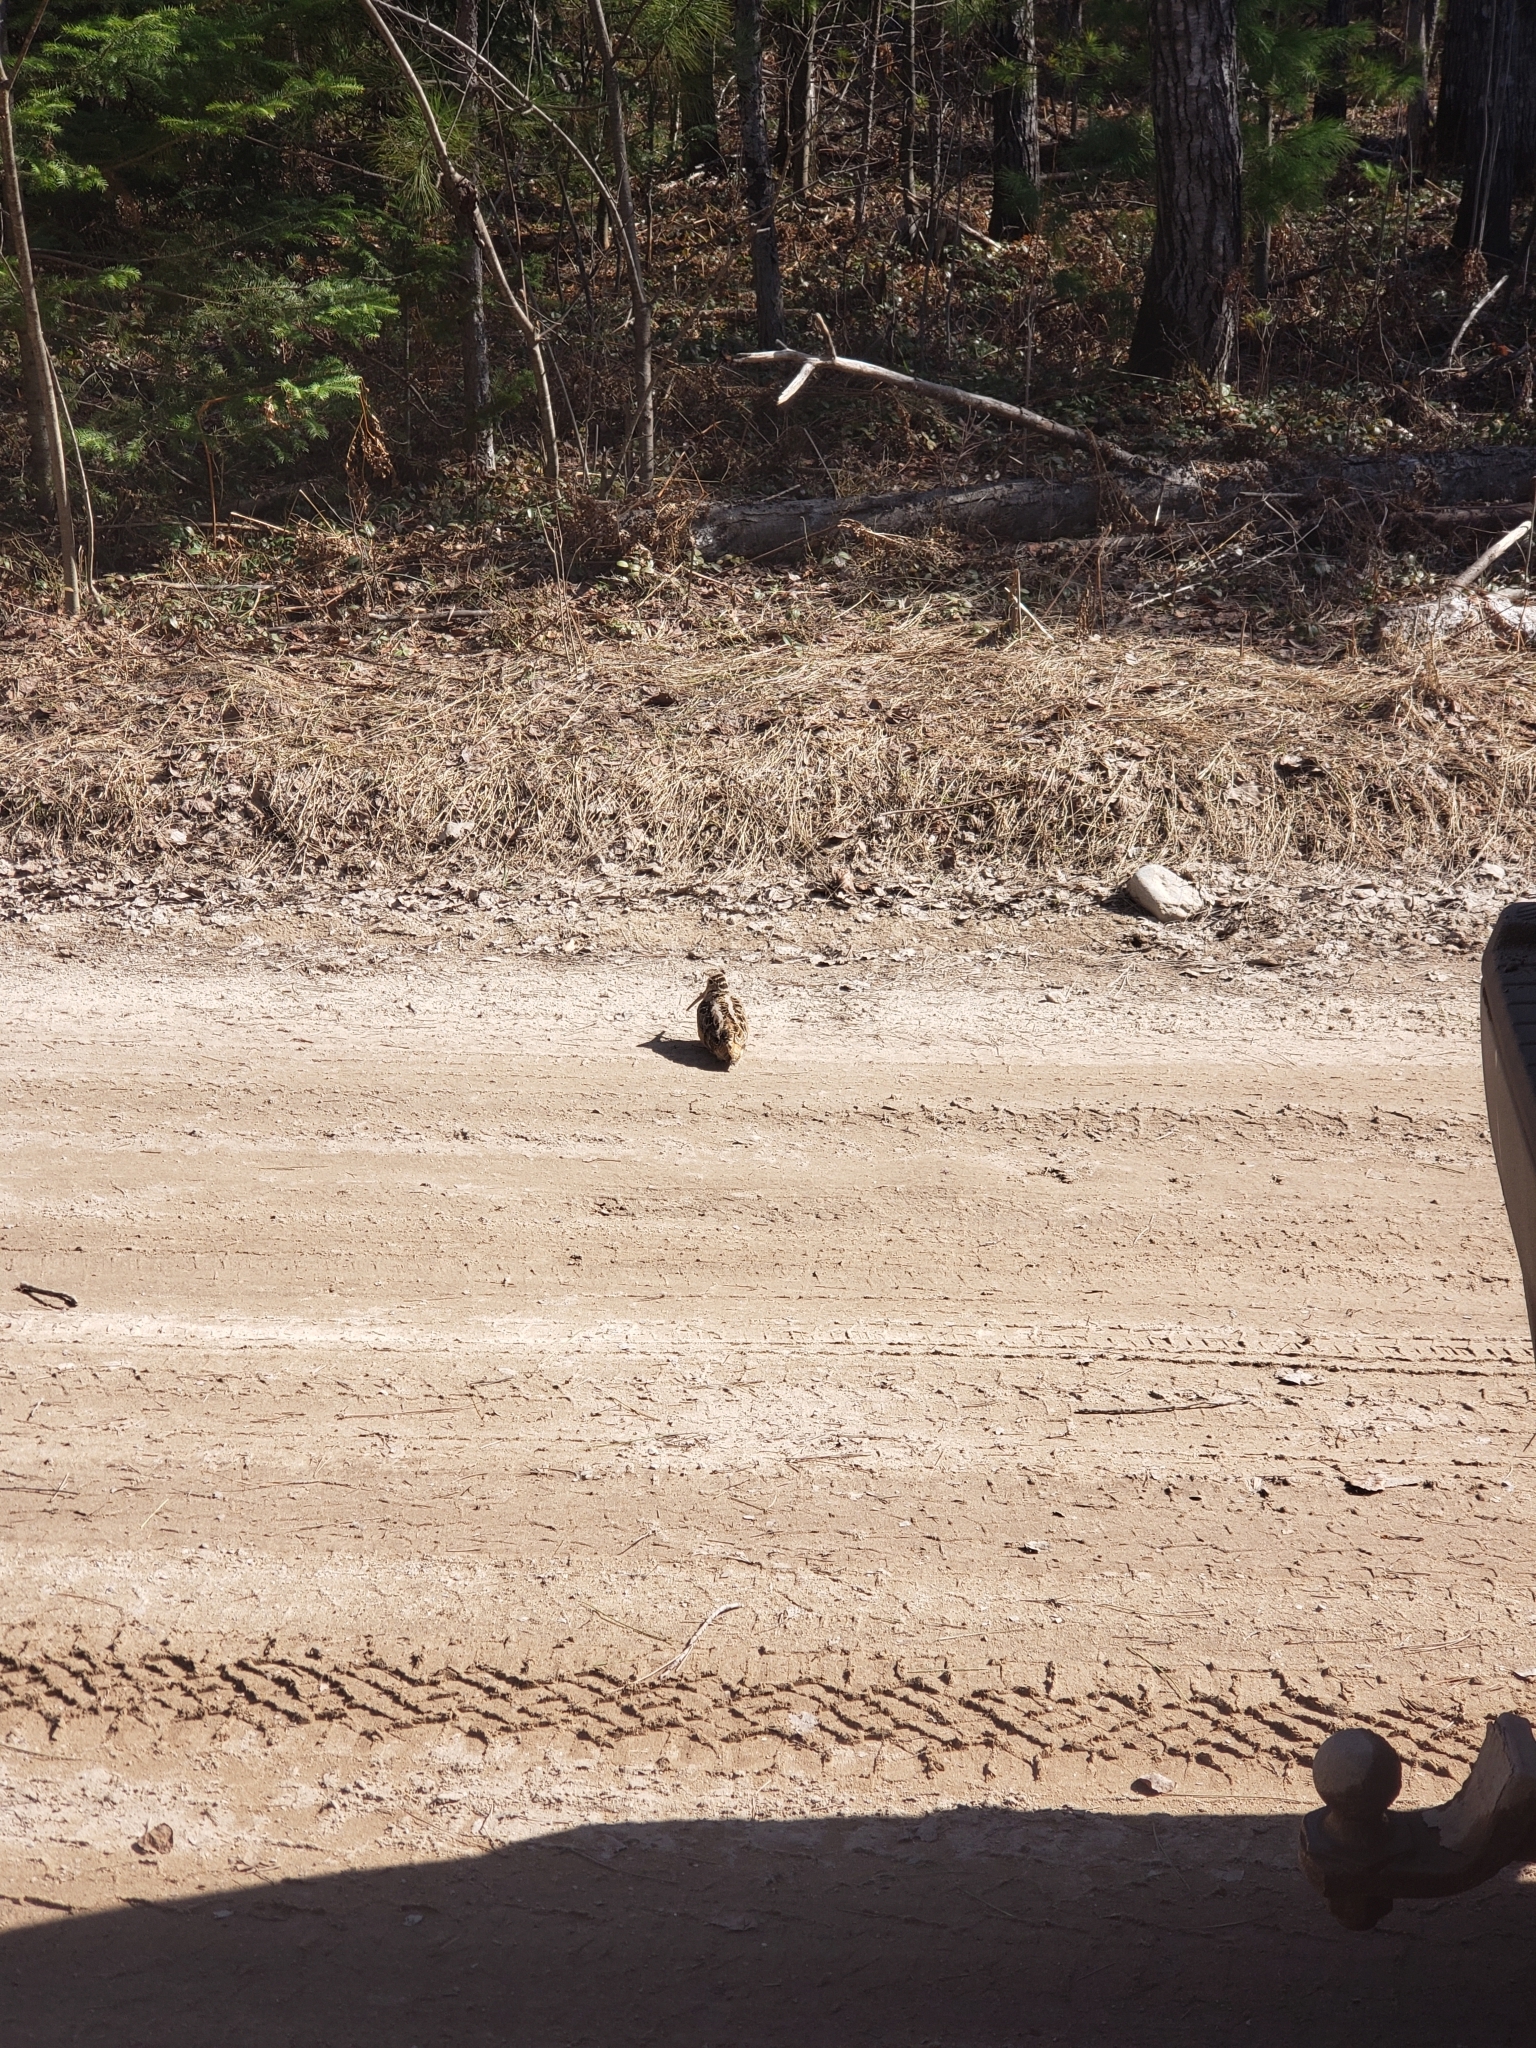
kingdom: Animalia
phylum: Chordata
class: Aves
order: Charadriiformes
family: Scolopacidae
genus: Scolopax
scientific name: Scolopax minor
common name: American woodcock
